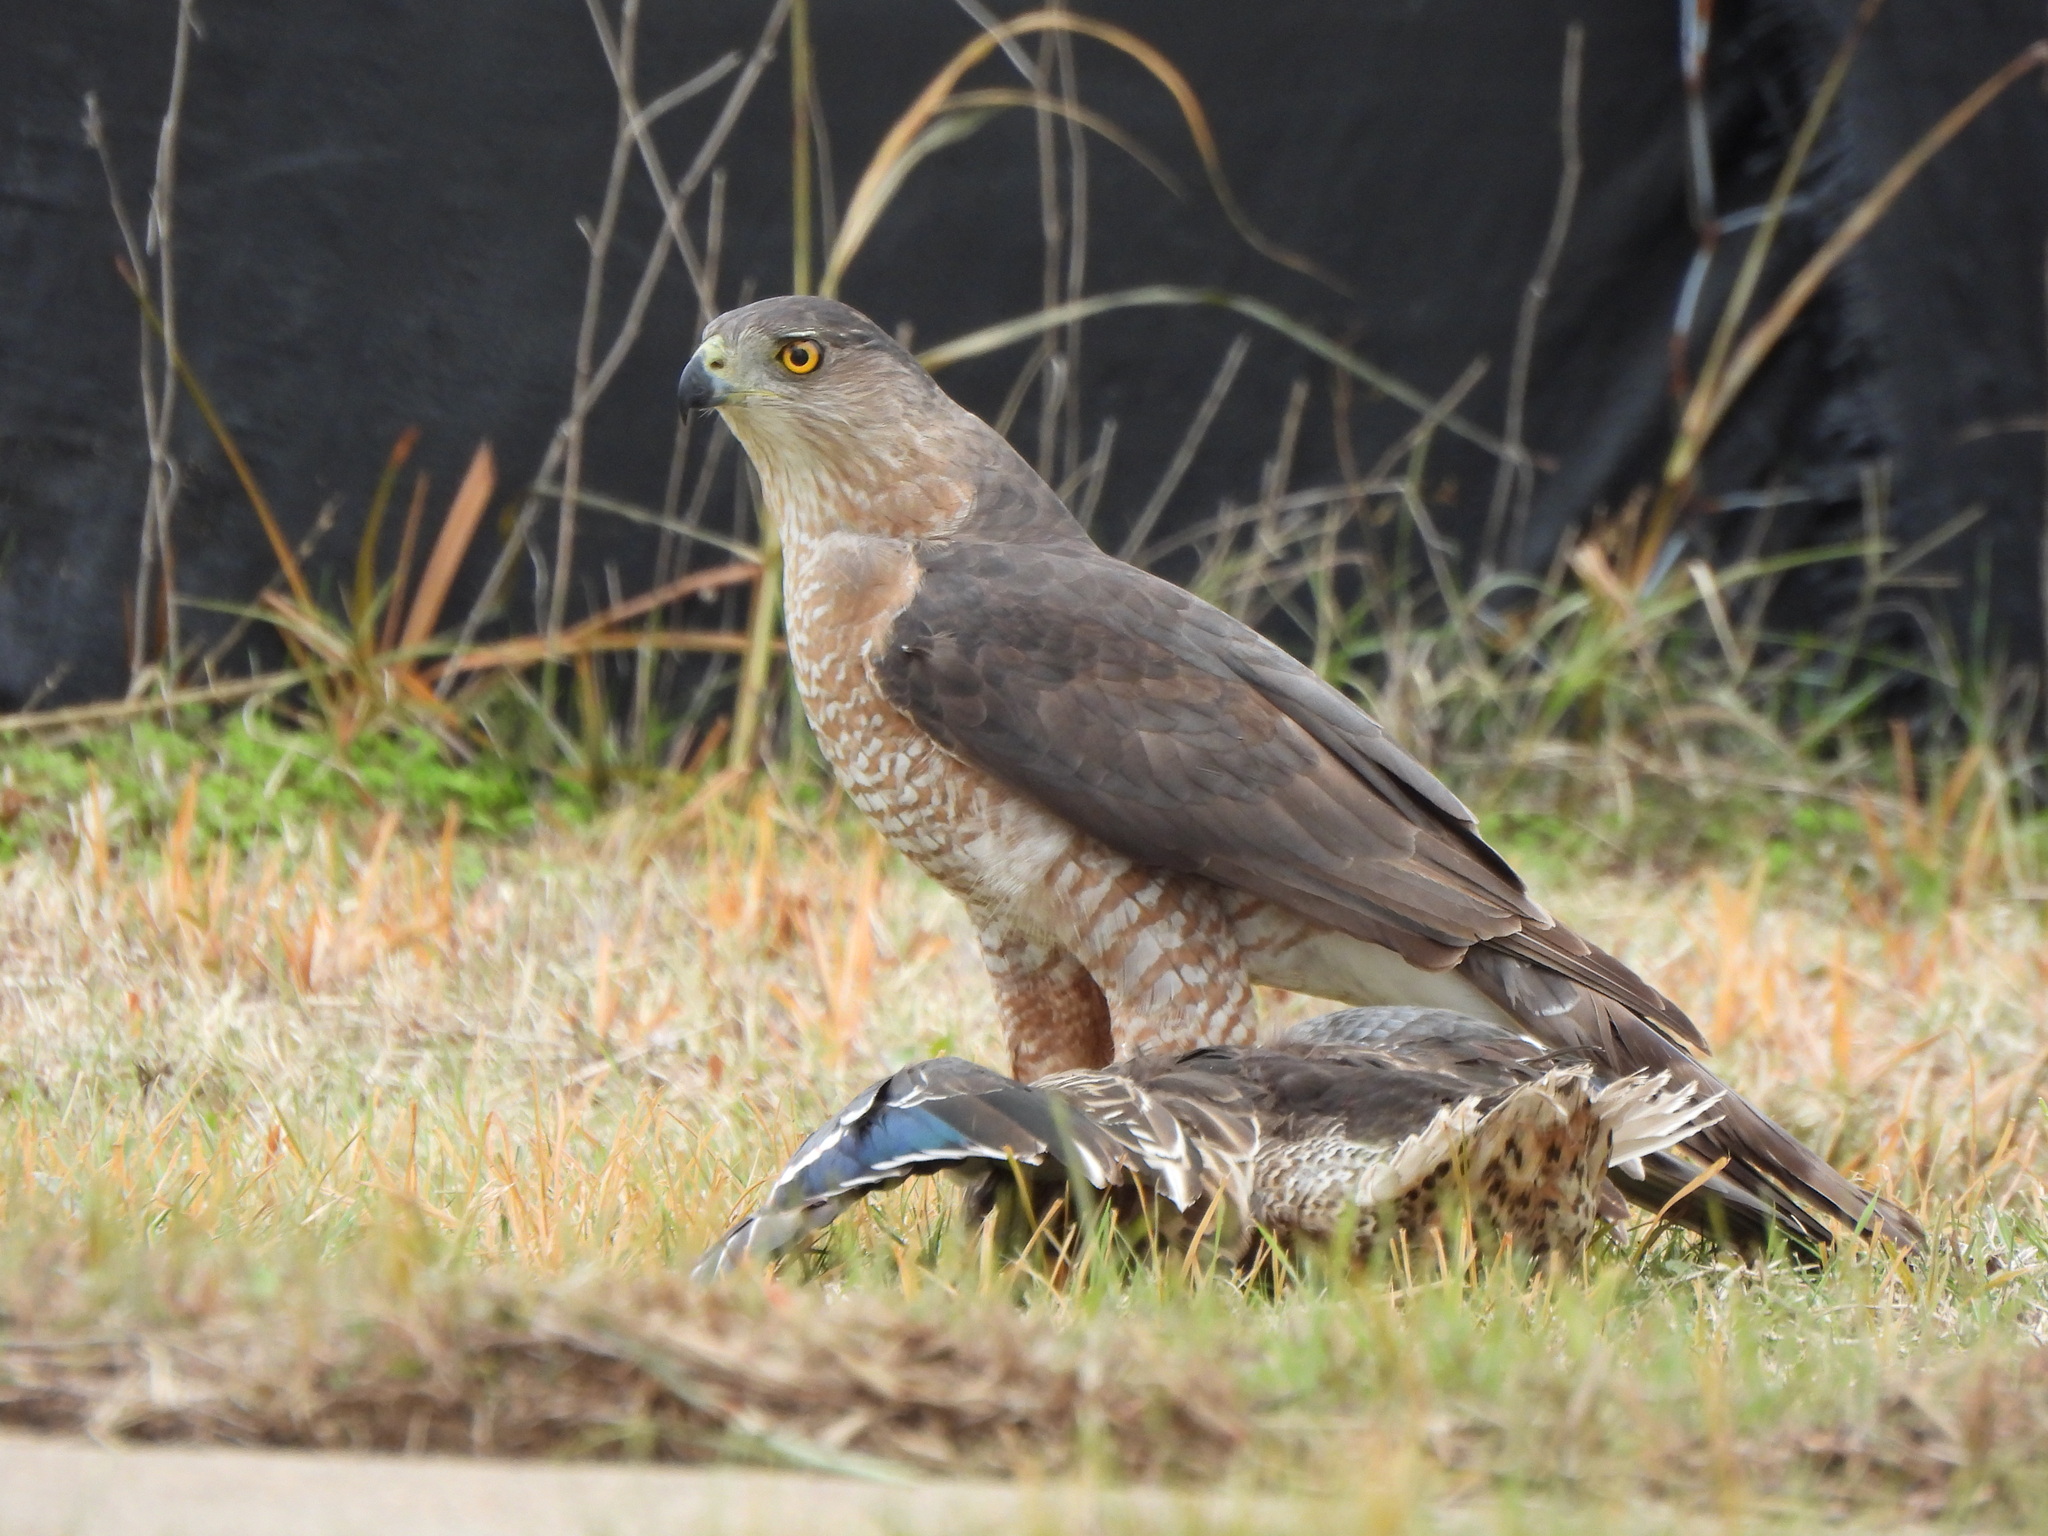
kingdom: Animalia
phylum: Chordata
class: Aves
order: Accipitriformes
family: Accipitridae
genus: Accipiter
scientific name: Accipiter cooperii
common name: Cooper's hawk
